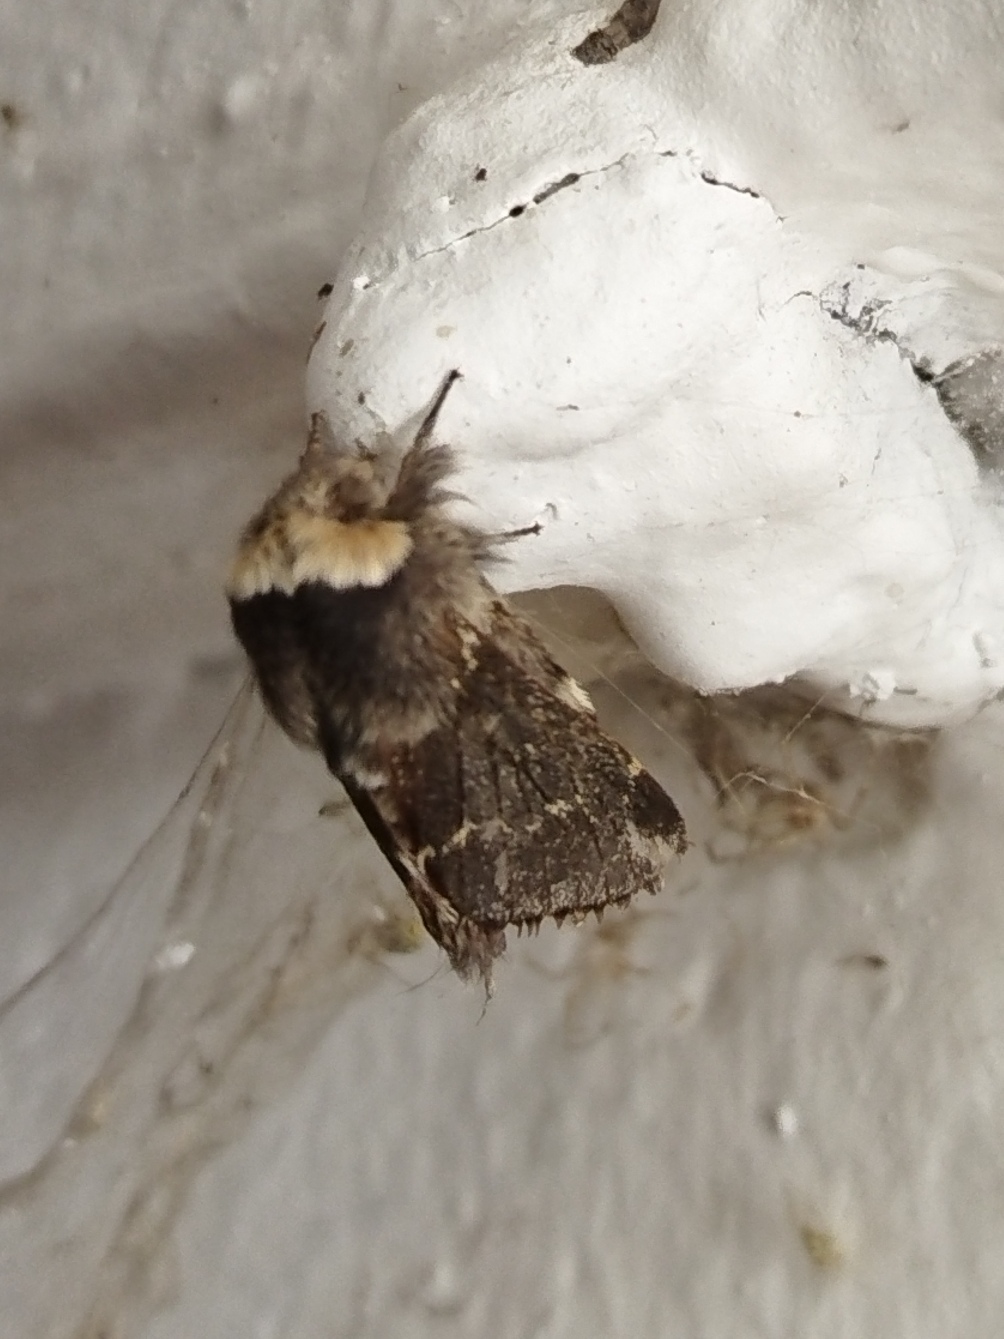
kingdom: Animalia
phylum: Arthropoda
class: Insecta
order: Lepidoptera
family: Lasiocampidae
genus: Poecilocampa
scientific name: Poecilocampa populi
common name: December moth
